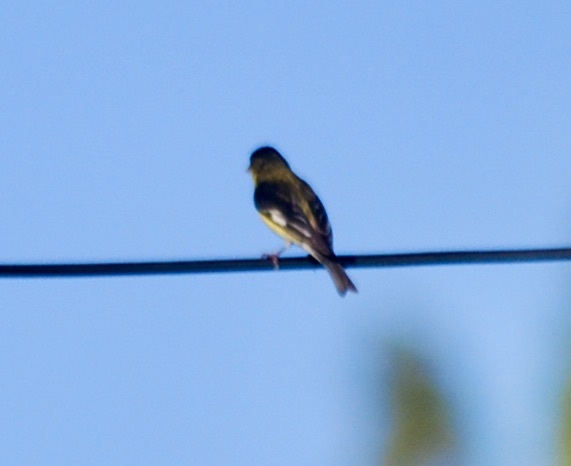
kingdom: Animalia
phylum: Chordata
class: Aves
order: Passeriformes
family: Fringillidae
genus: Spinus
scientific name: Spinus psaltria
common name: Lesser goldfinch
